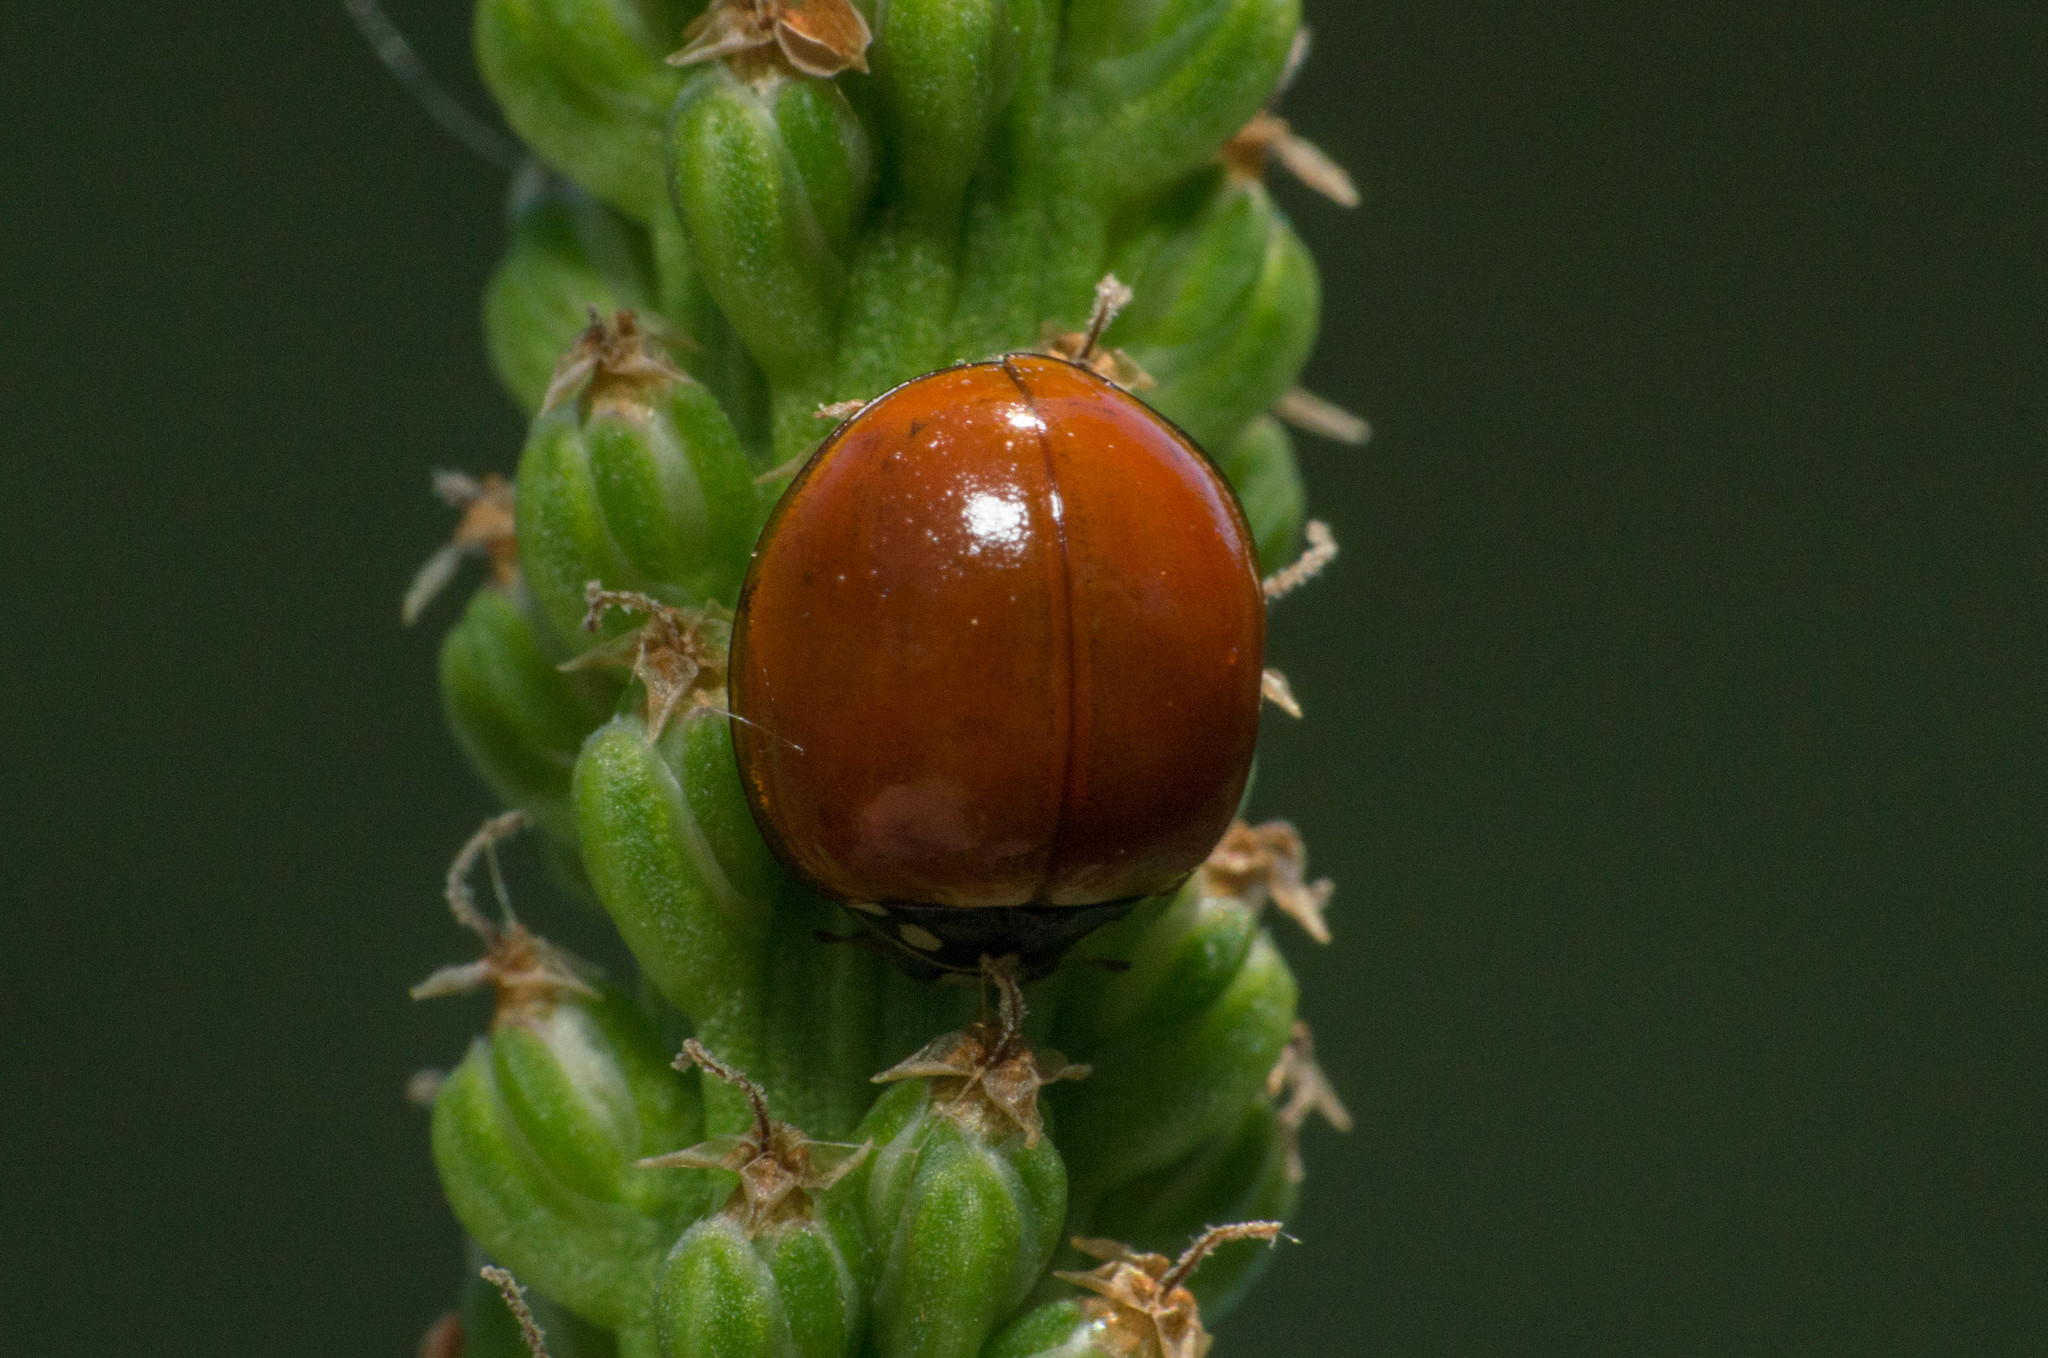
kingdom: Animalia
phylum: Arthropoda
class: Insecta
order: Coleoptera
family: Coccinellidae
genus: Cycloneda
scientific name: Cycloneda sanguinea
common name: Ladybird beetle
